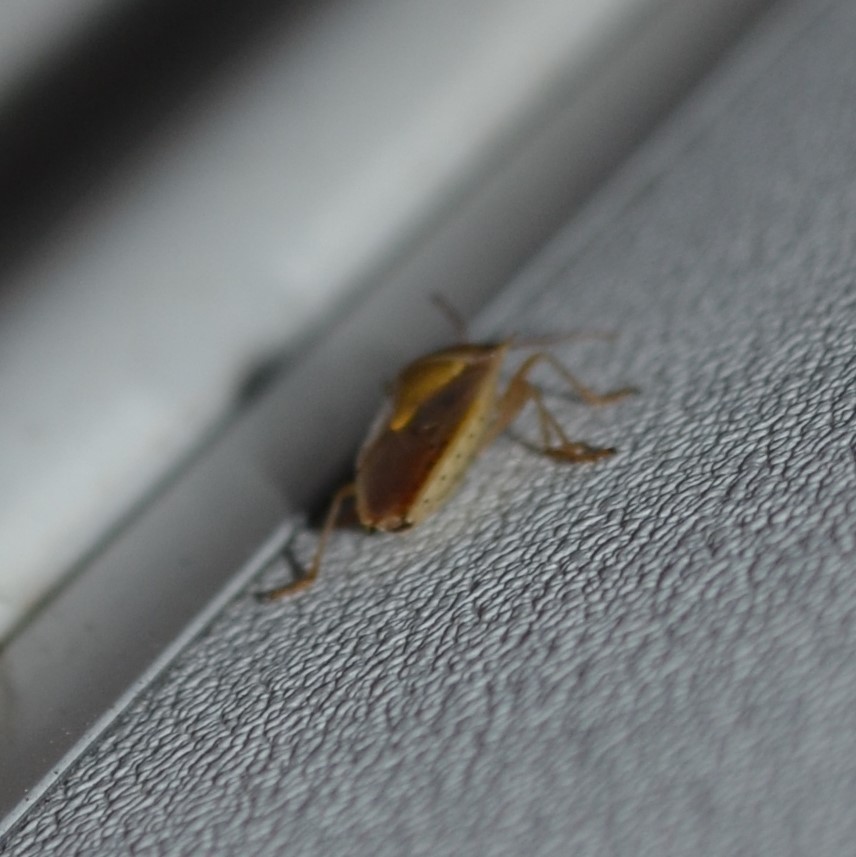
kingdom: Animalia
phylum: Arthropoda
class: Insecta
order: Hemiptera
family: Pentatomidae
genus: Oebalus
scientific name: Oebalus pugnax
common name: Rice stink bug
